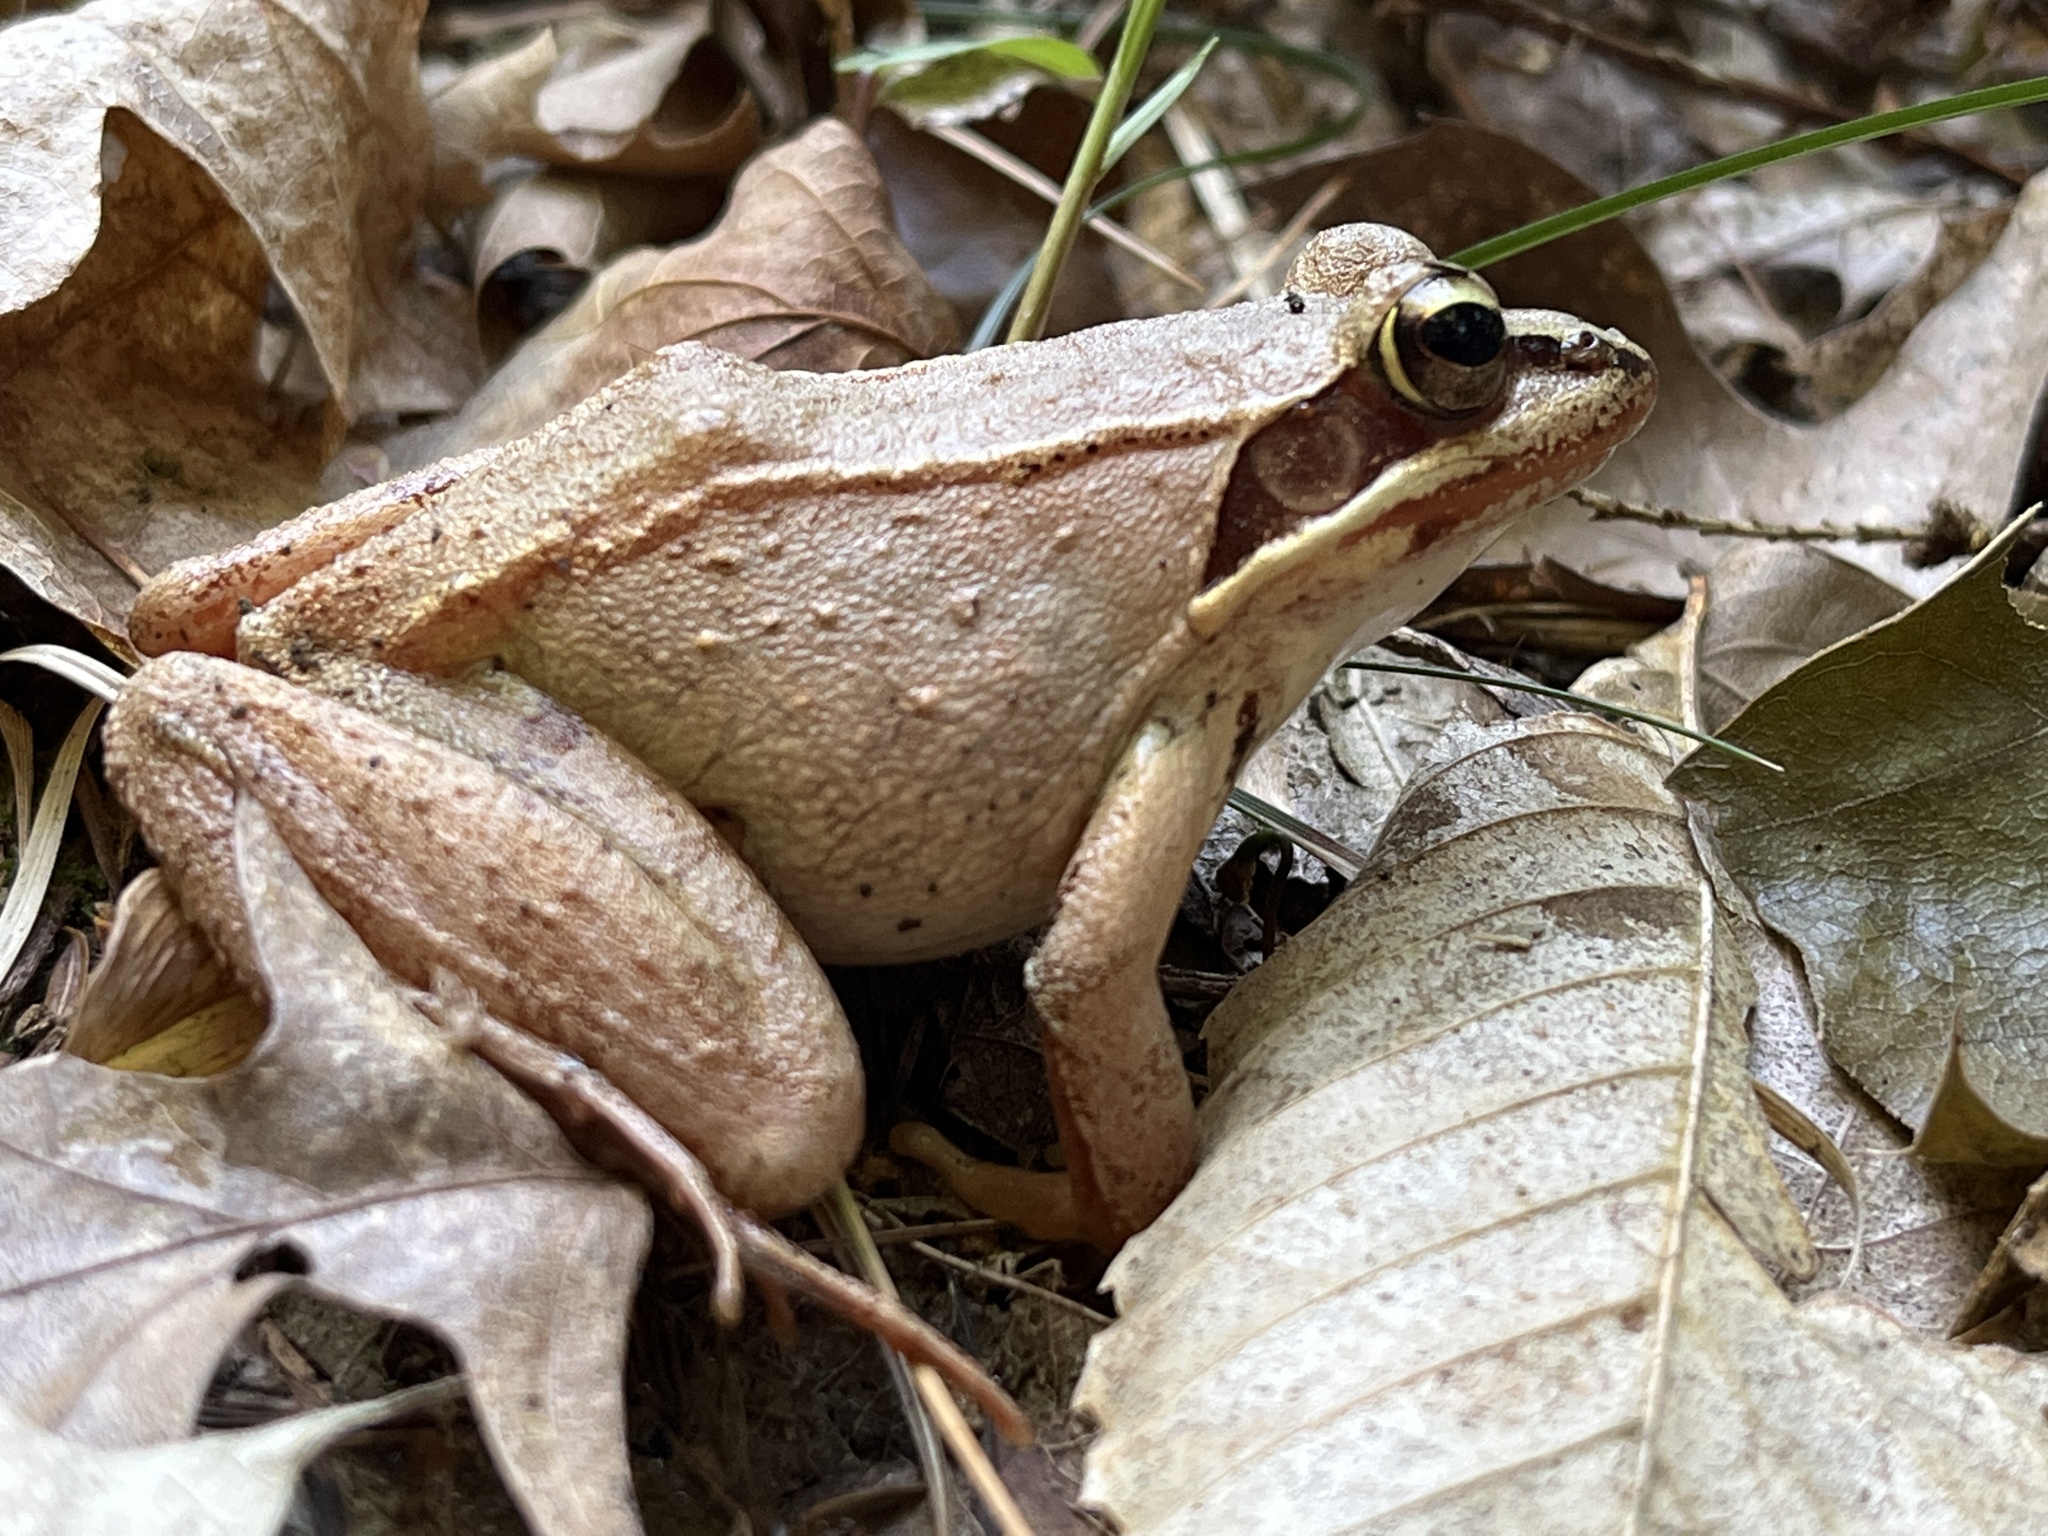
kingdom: Animalia
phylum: Chordata
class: Amphibia
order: Anura
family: Ranidae
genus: Lithobates
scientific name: Lithobates sylvaticus
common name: Wood frog
